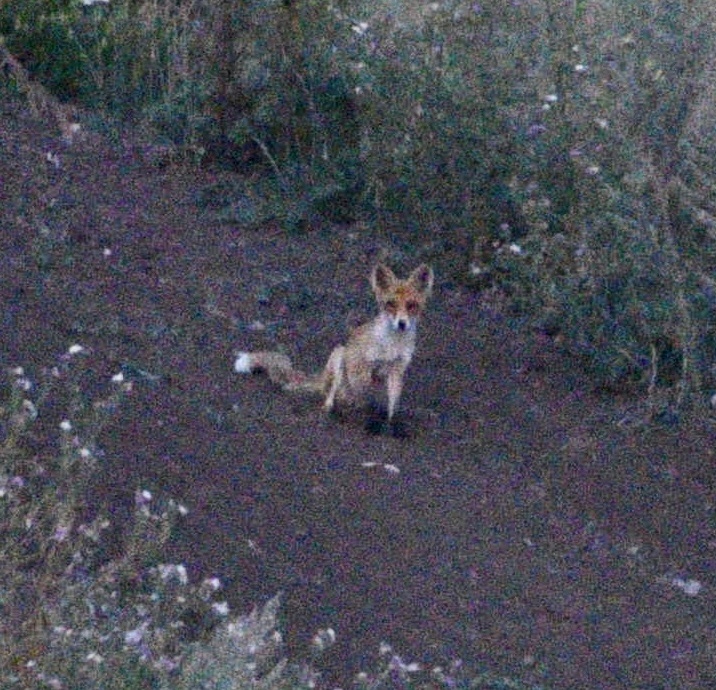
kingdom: Animalia
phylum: Chordata
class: Mammalia
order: Carnivora
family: Canidae
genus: Vulpes
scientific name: Vulpes vulpes
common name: Red fox
